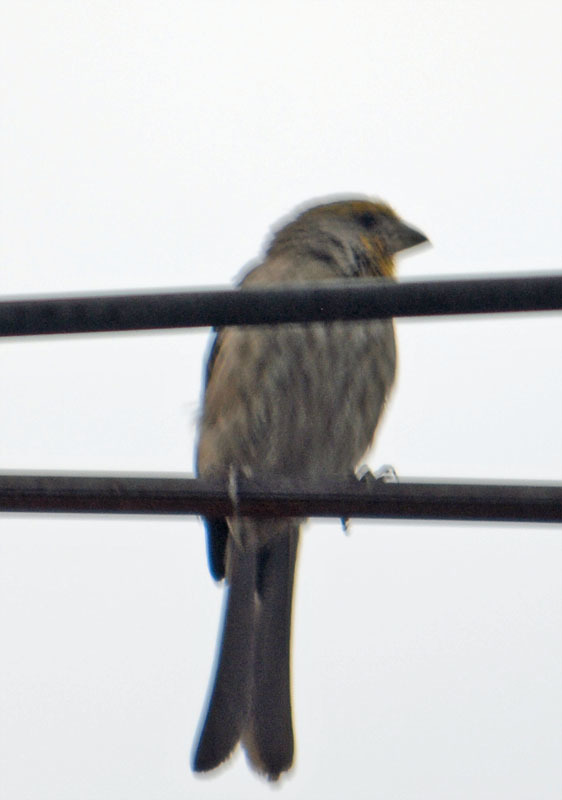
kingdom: Animalia
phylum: Chordata
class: Aves
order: Passeriformes
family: Fringillidae
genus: Haemorhous
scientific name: Haemorhous mexicanus
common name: House finch
